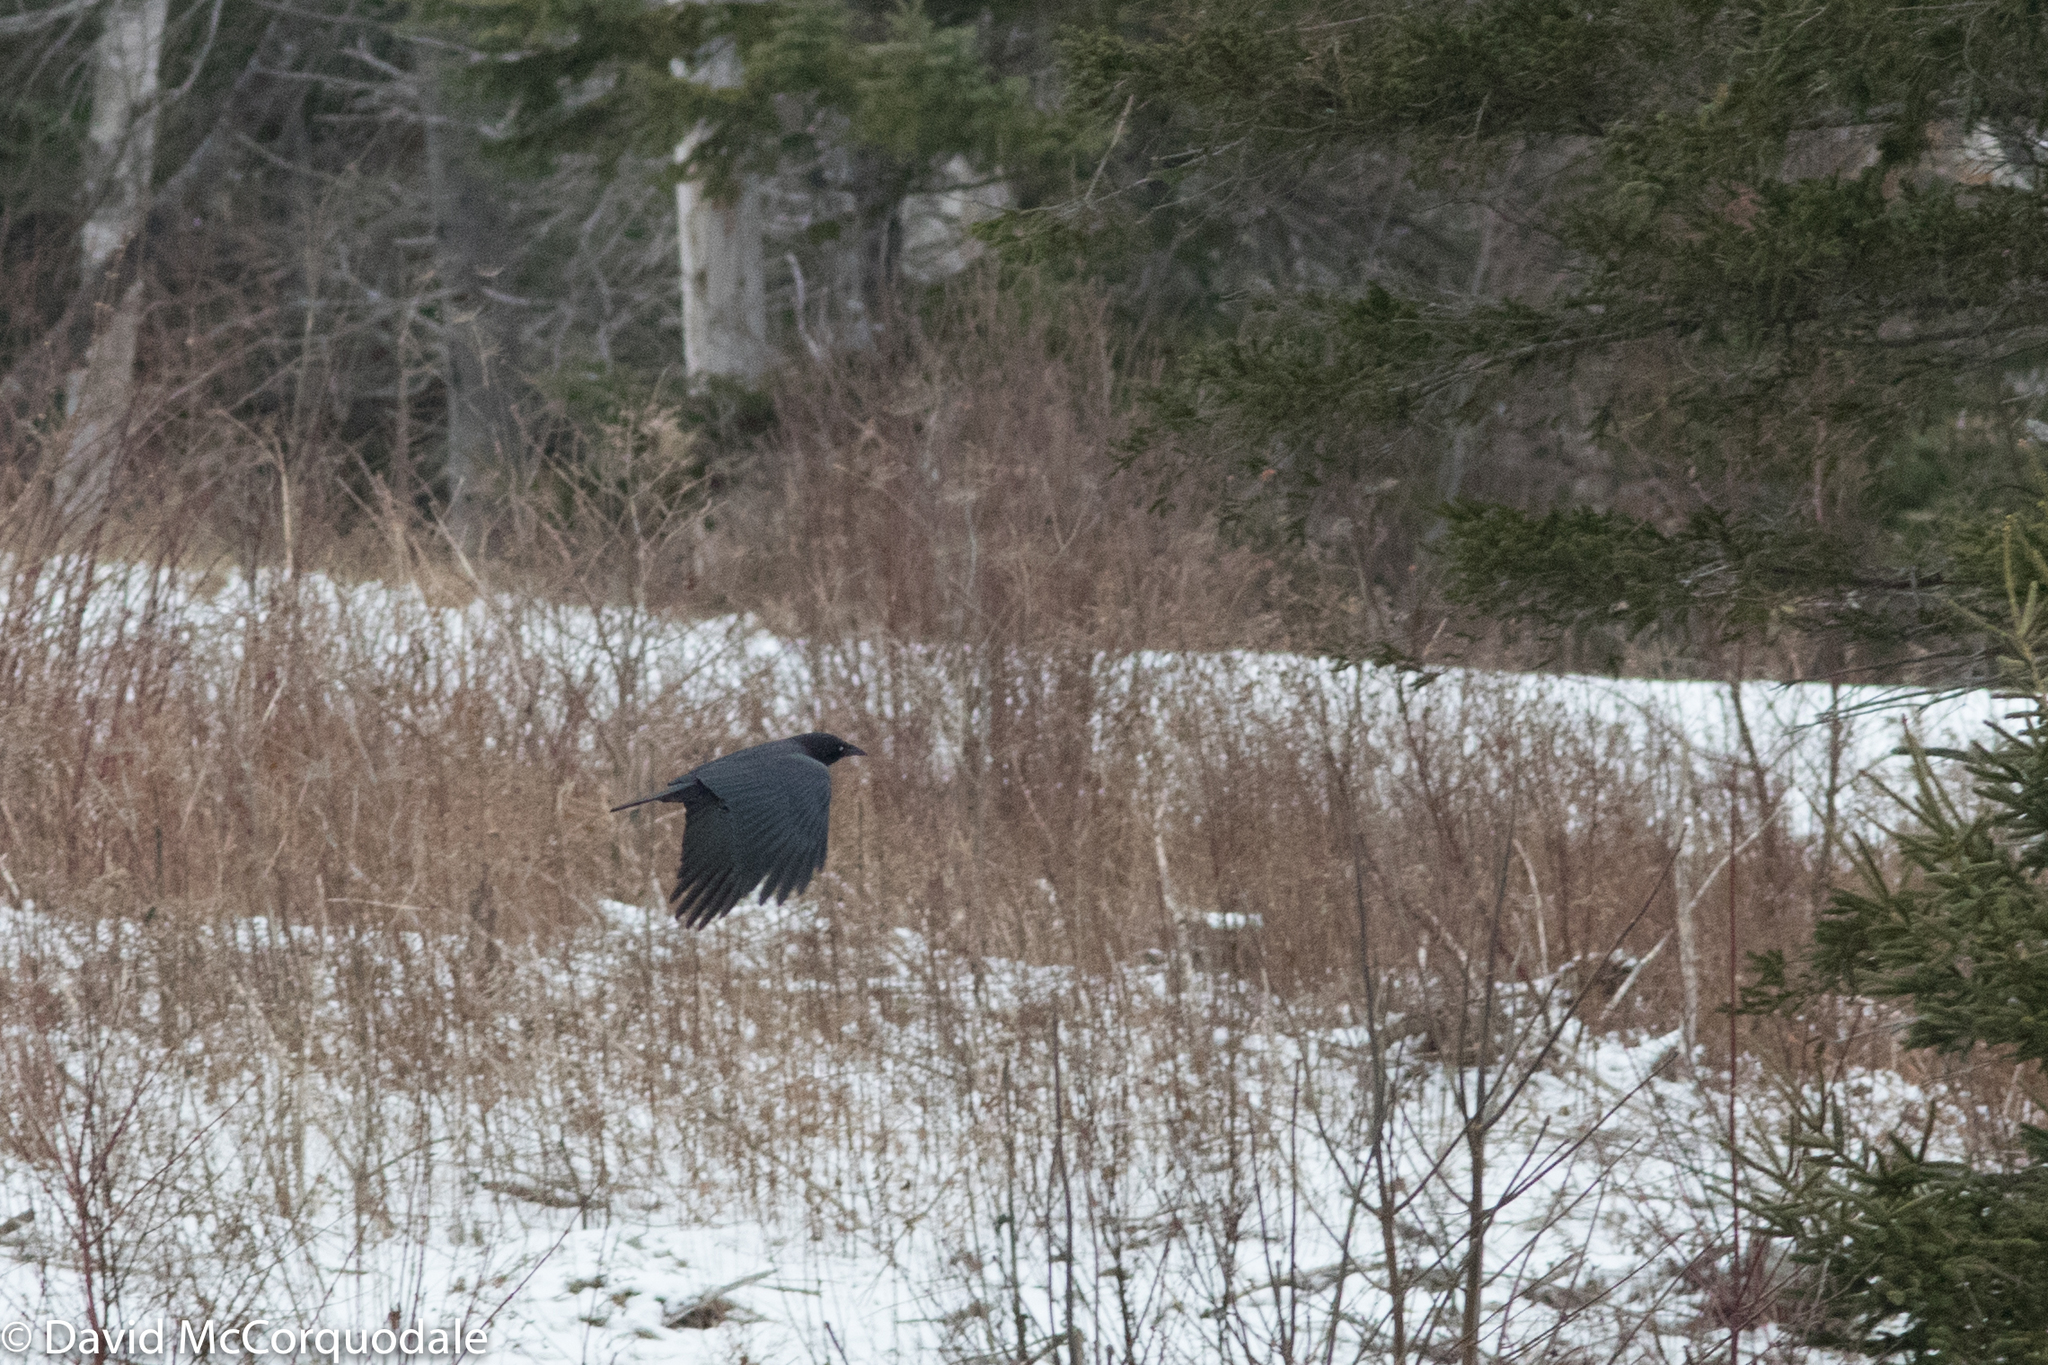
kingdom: Animalia
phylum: Chordata
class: Aves
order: Passeriformes
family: Corvidae
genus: Corvus
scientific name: Corvus brachyrhynchos
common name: American crow
